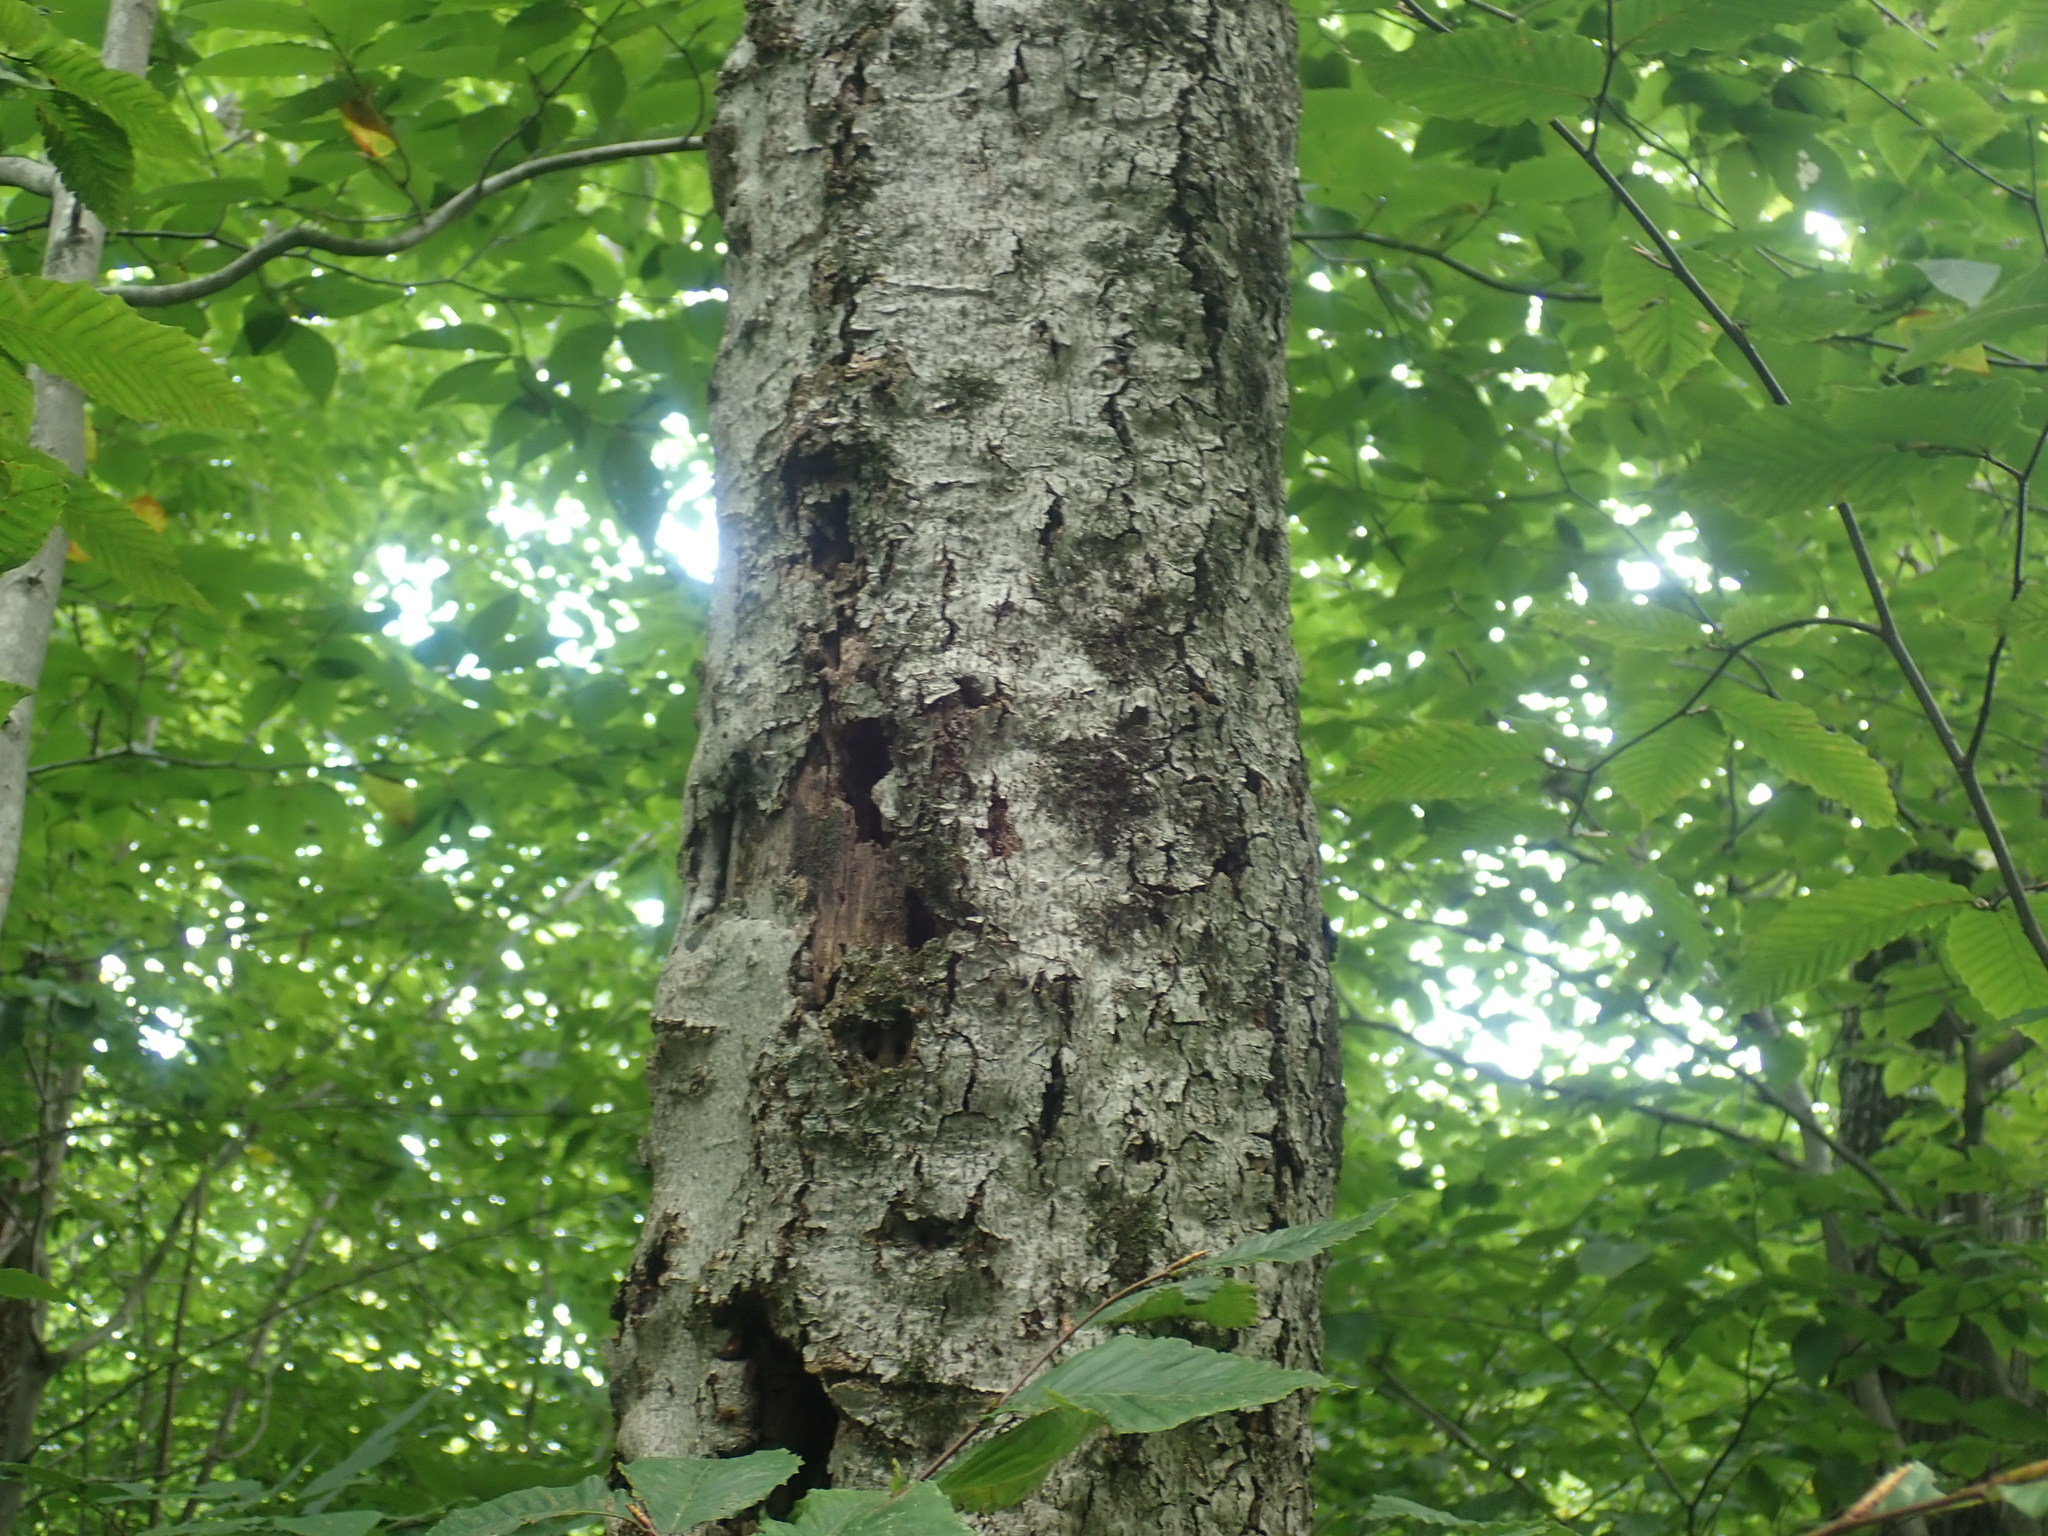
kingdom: Fungi
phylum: Ascomycota
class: Sordariomycetes
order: Hypocreales
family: Nectriaceae
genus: Neonectria
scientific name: Neonectria faginata
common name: Beech bark canker
